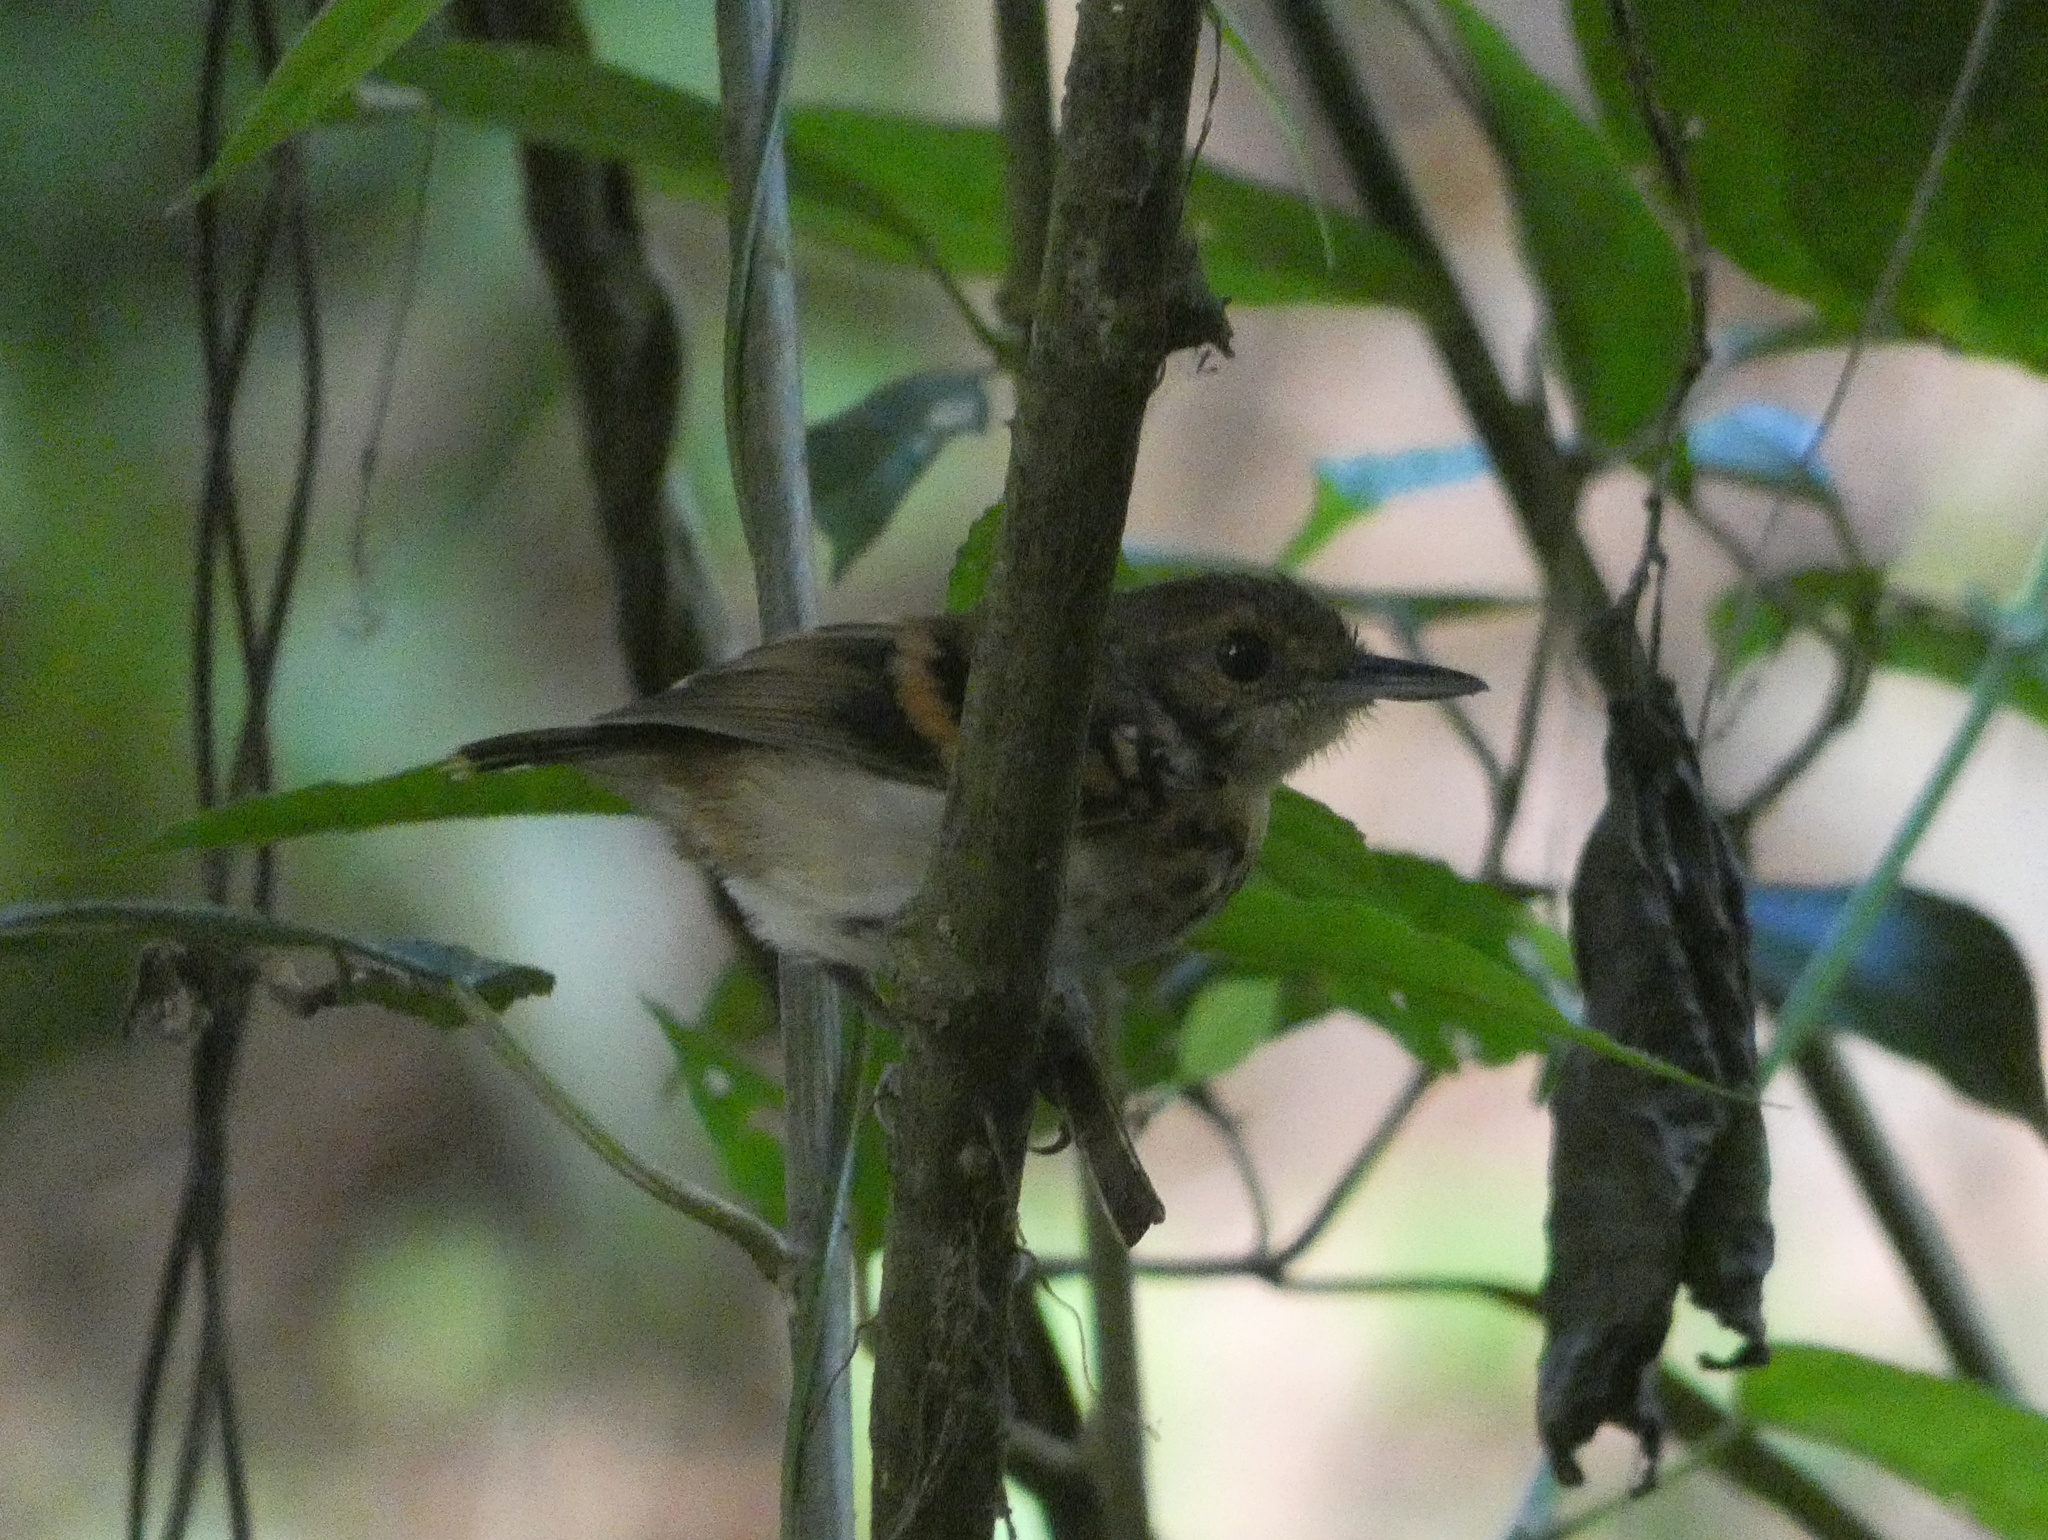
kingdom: Animalia
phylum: Chordata
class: Aves
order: Passeriformes
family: Thamnophilidae
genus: Hylophylax
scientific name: Hylophylax naevioides
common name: Spotted antbird
